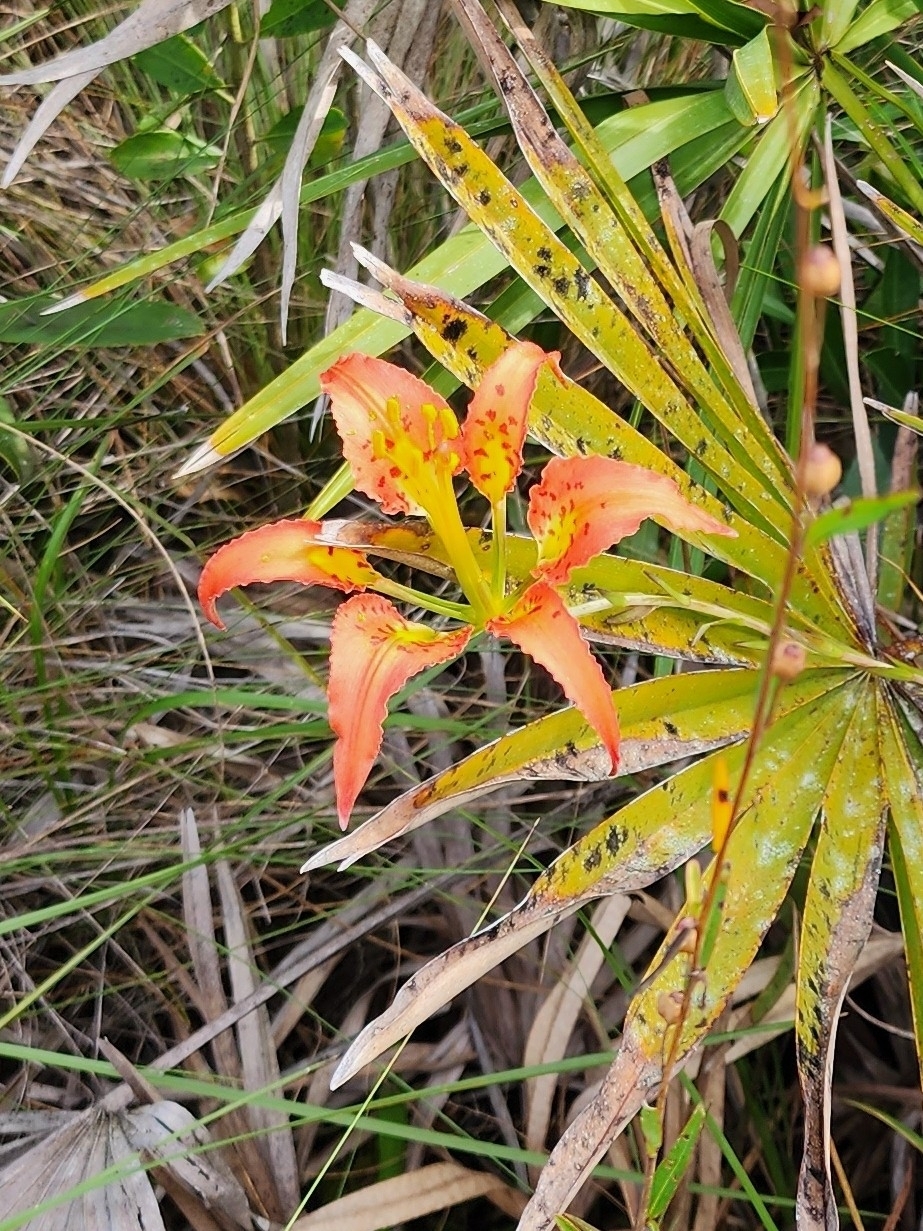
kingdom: Plantae
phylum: Tracheophyta
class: Liliopsida
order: Liliales
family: Liliaceae
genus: Lilium
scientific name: Lilium catesbaei
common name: Catesby's lily
